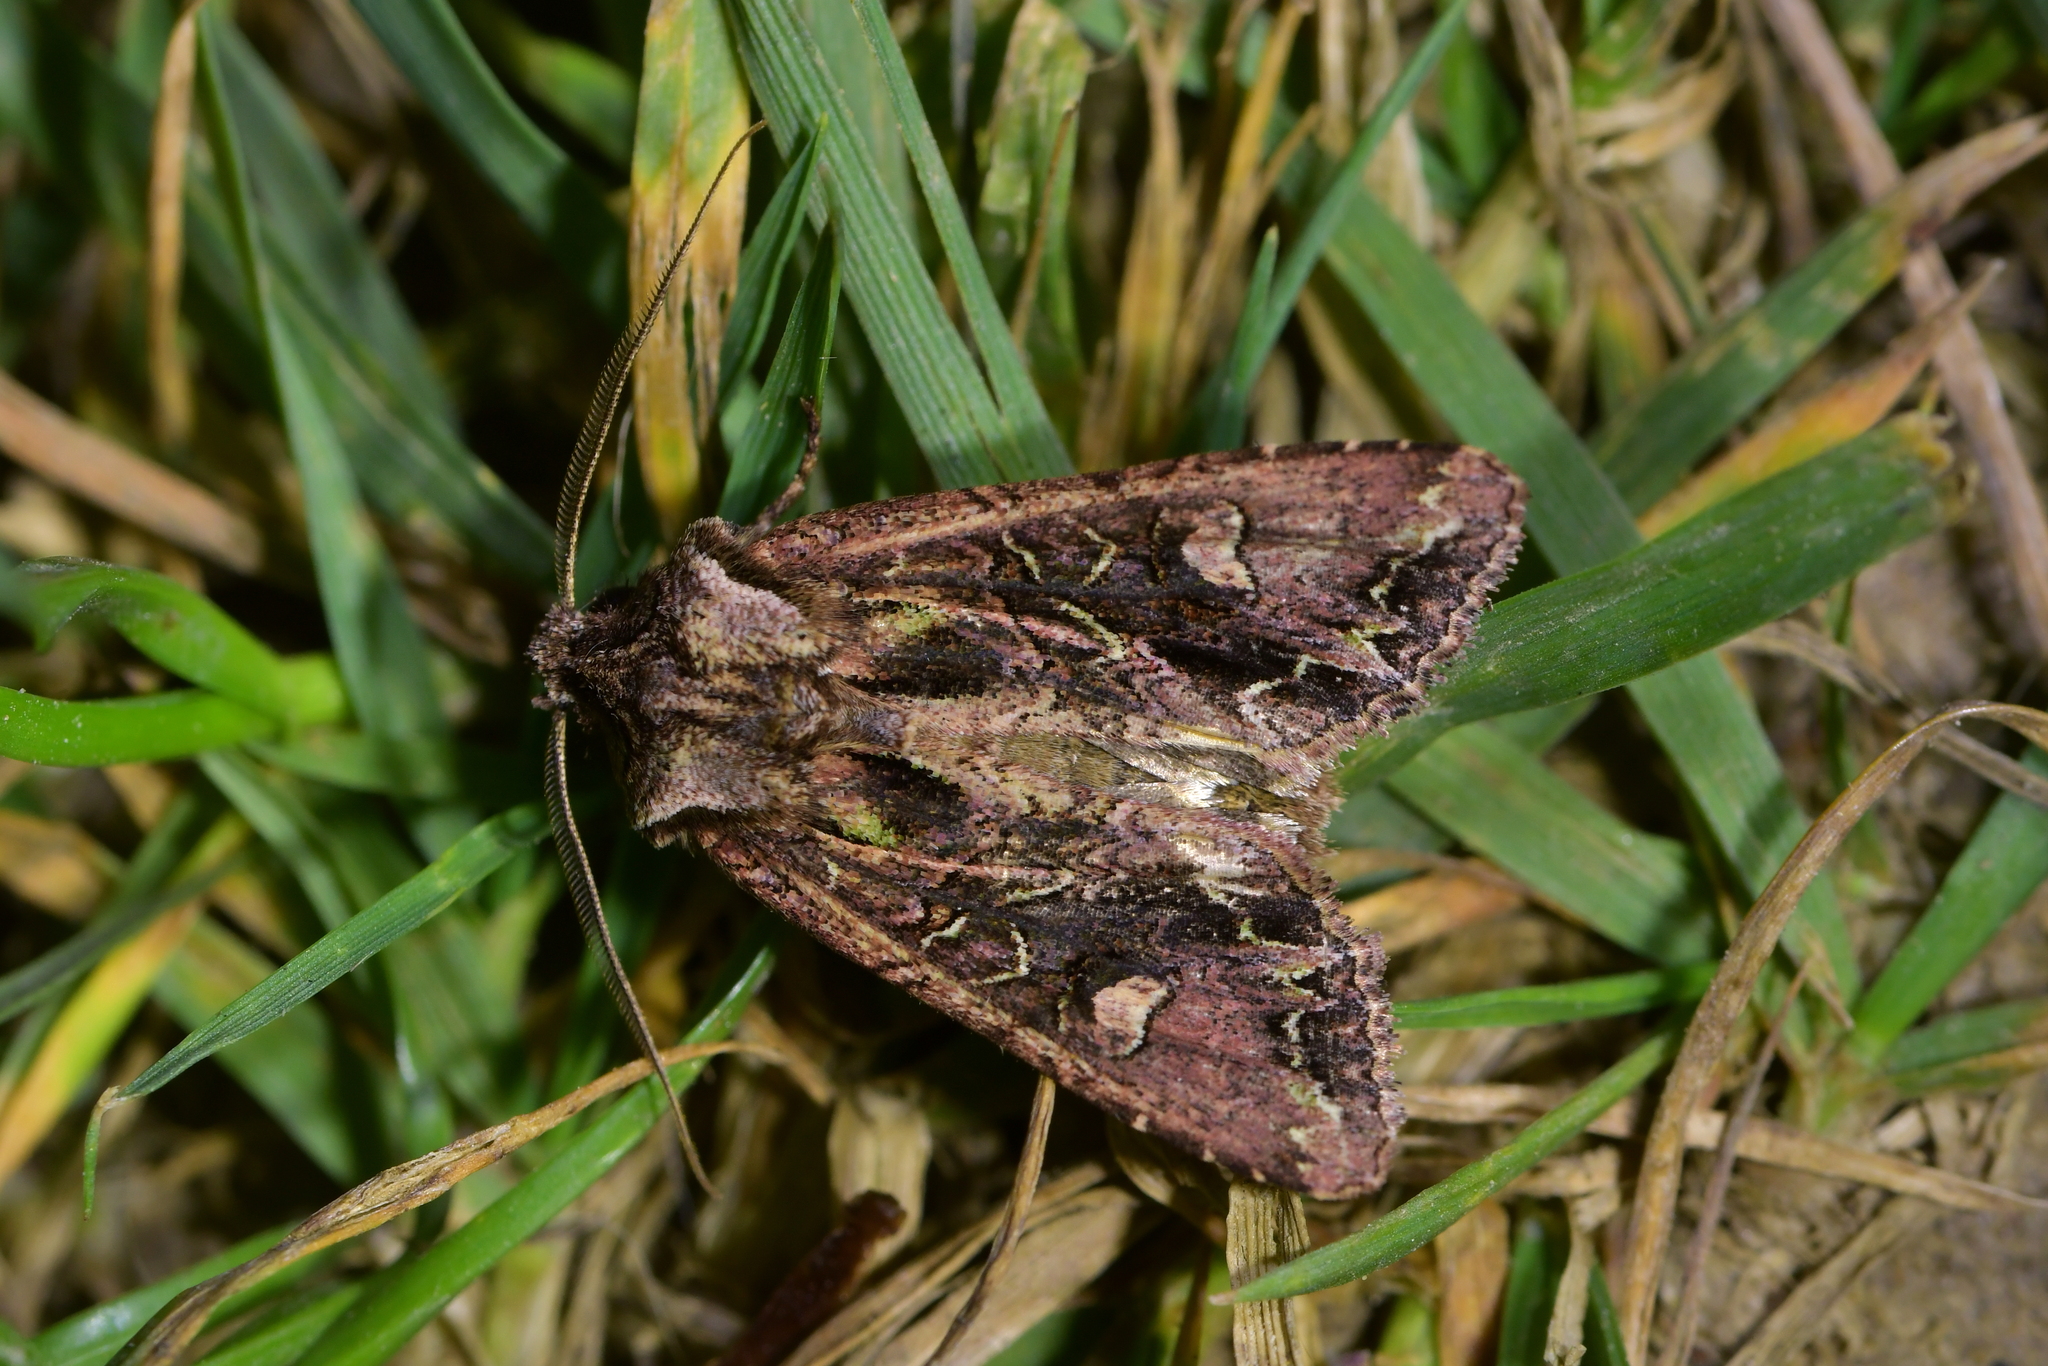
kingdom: Animalia
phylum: Arthropoda
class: Insecta
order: Lepidoptera
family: Noctuidae
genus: Ichneutica
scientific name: Ichneutica insignis
